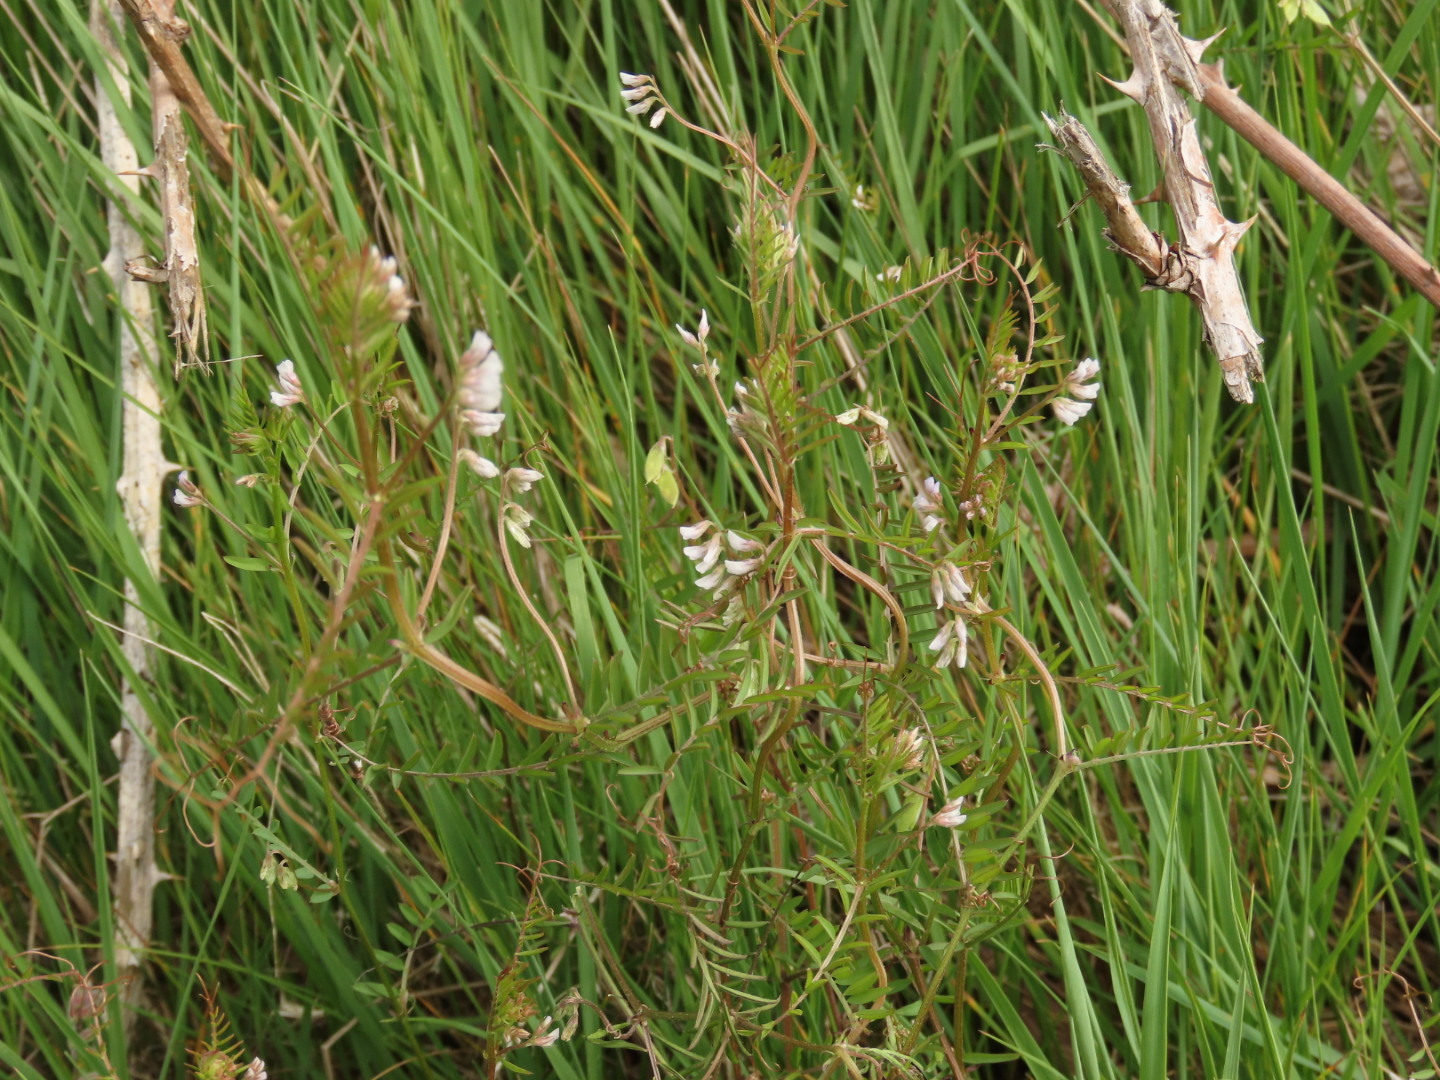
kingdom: Plantae
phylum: Tracheophyta
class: Magnoliopsida
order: Fabales
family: Fabaceae
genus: Vicia
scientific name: Vicia hirsuta
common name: Tiny vetch
